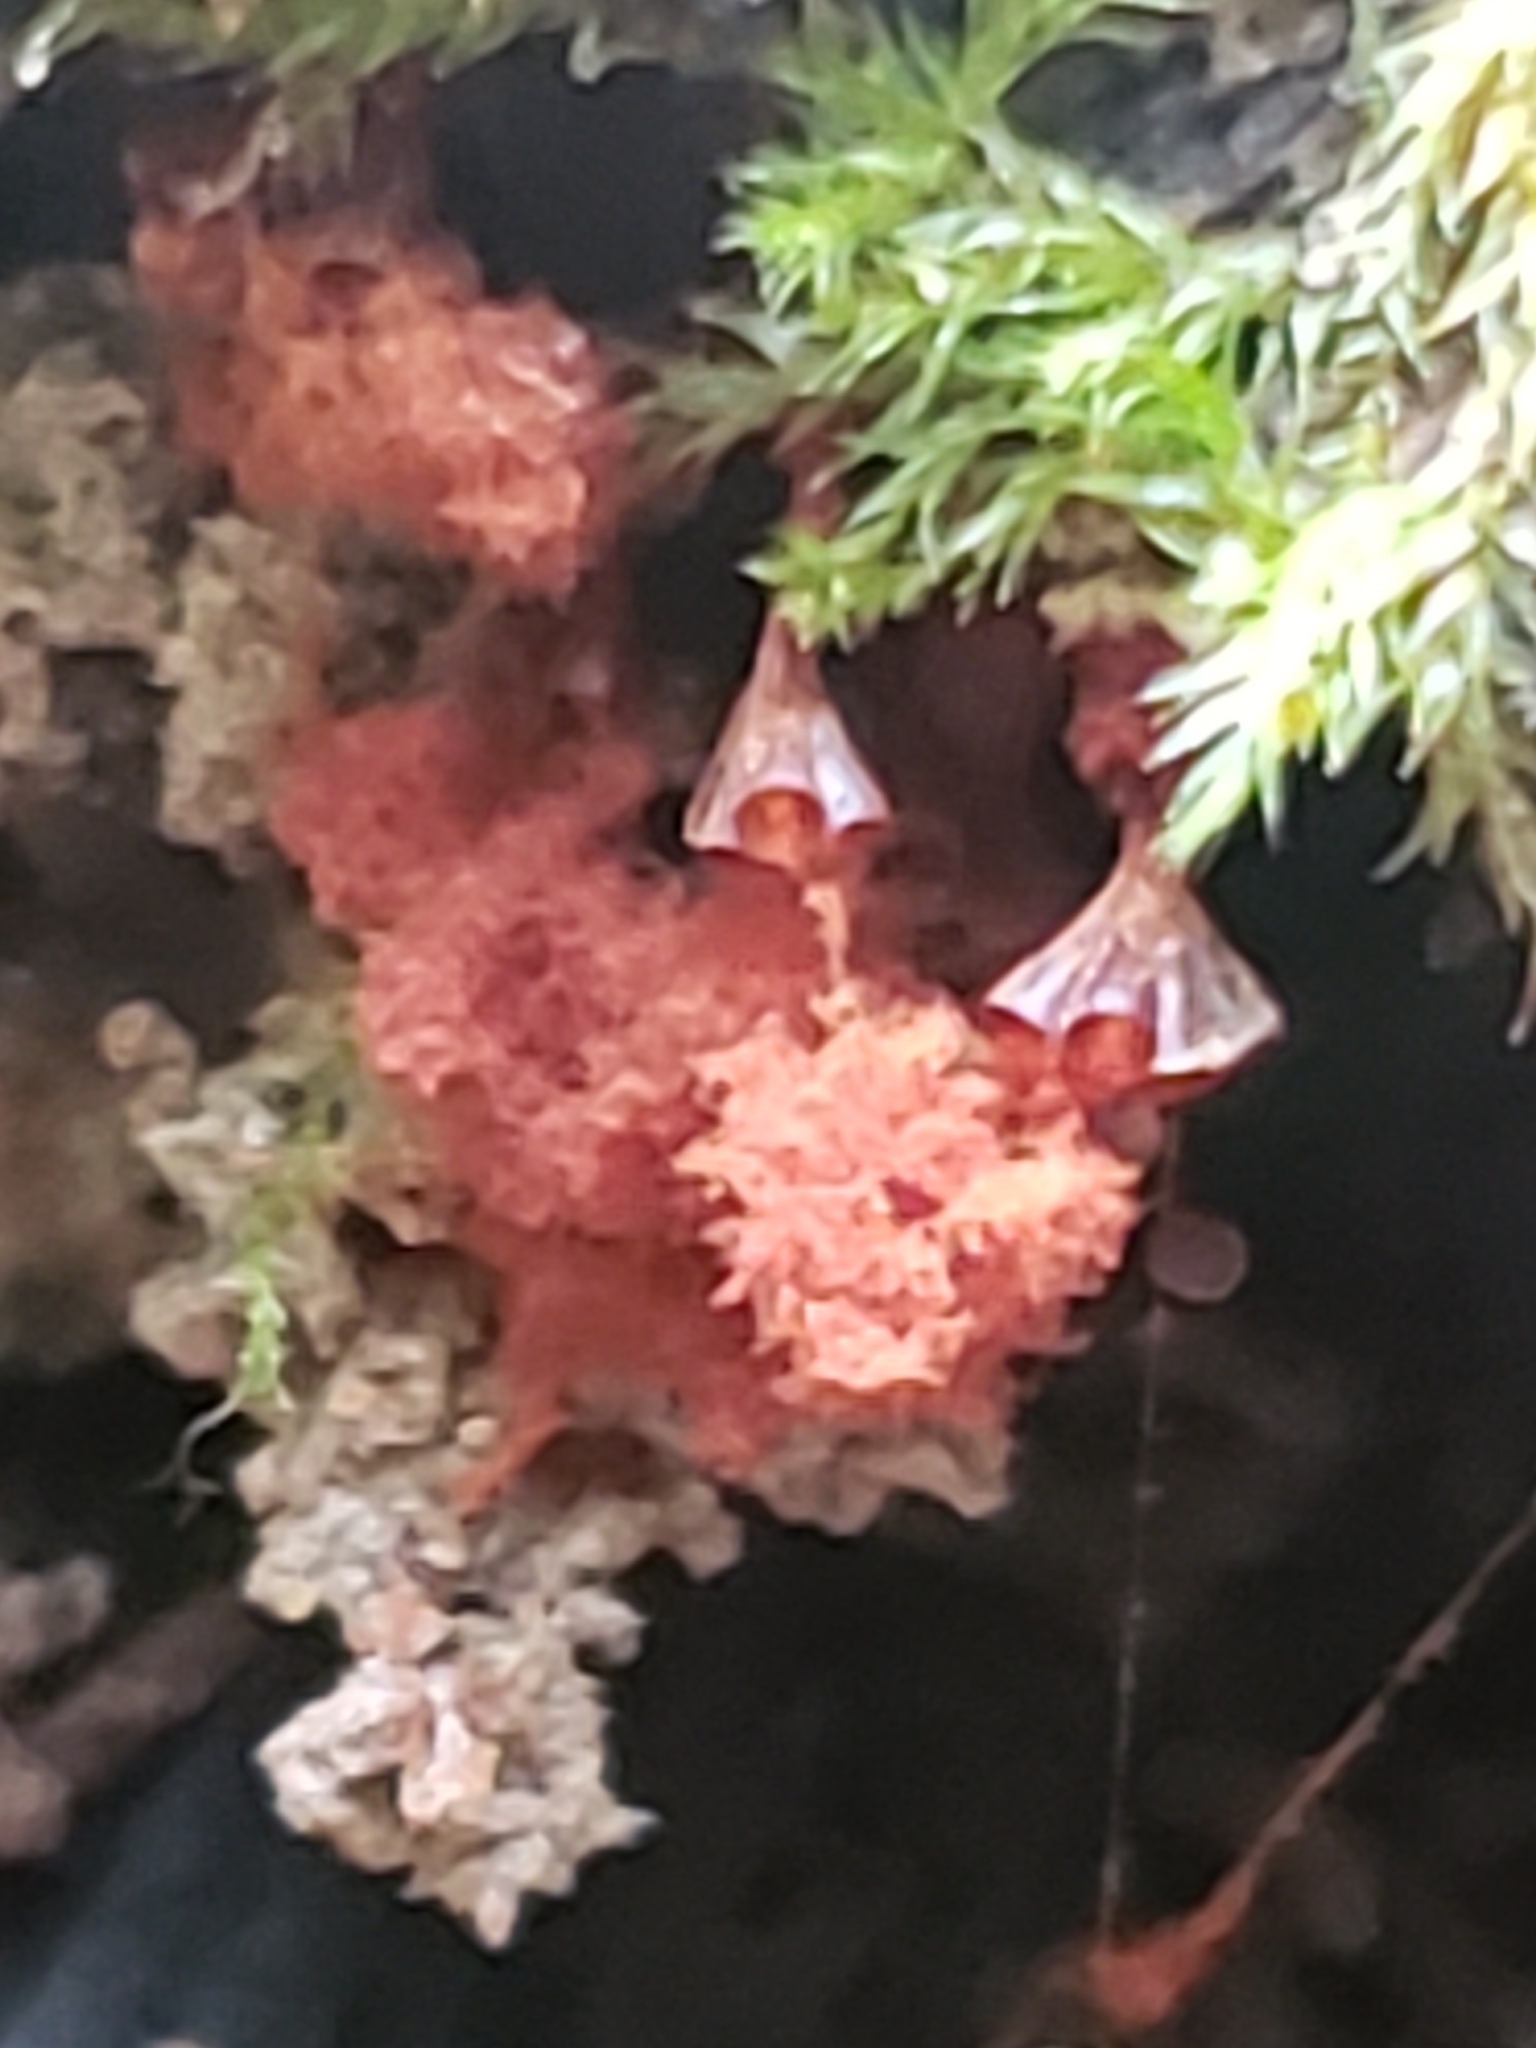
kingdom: Protozoa
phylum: Mycetozoa
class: Myxomycetes
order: Trichiales
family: Trichiaceae
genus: Metatrichia
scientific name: Metatrichia vesparia
